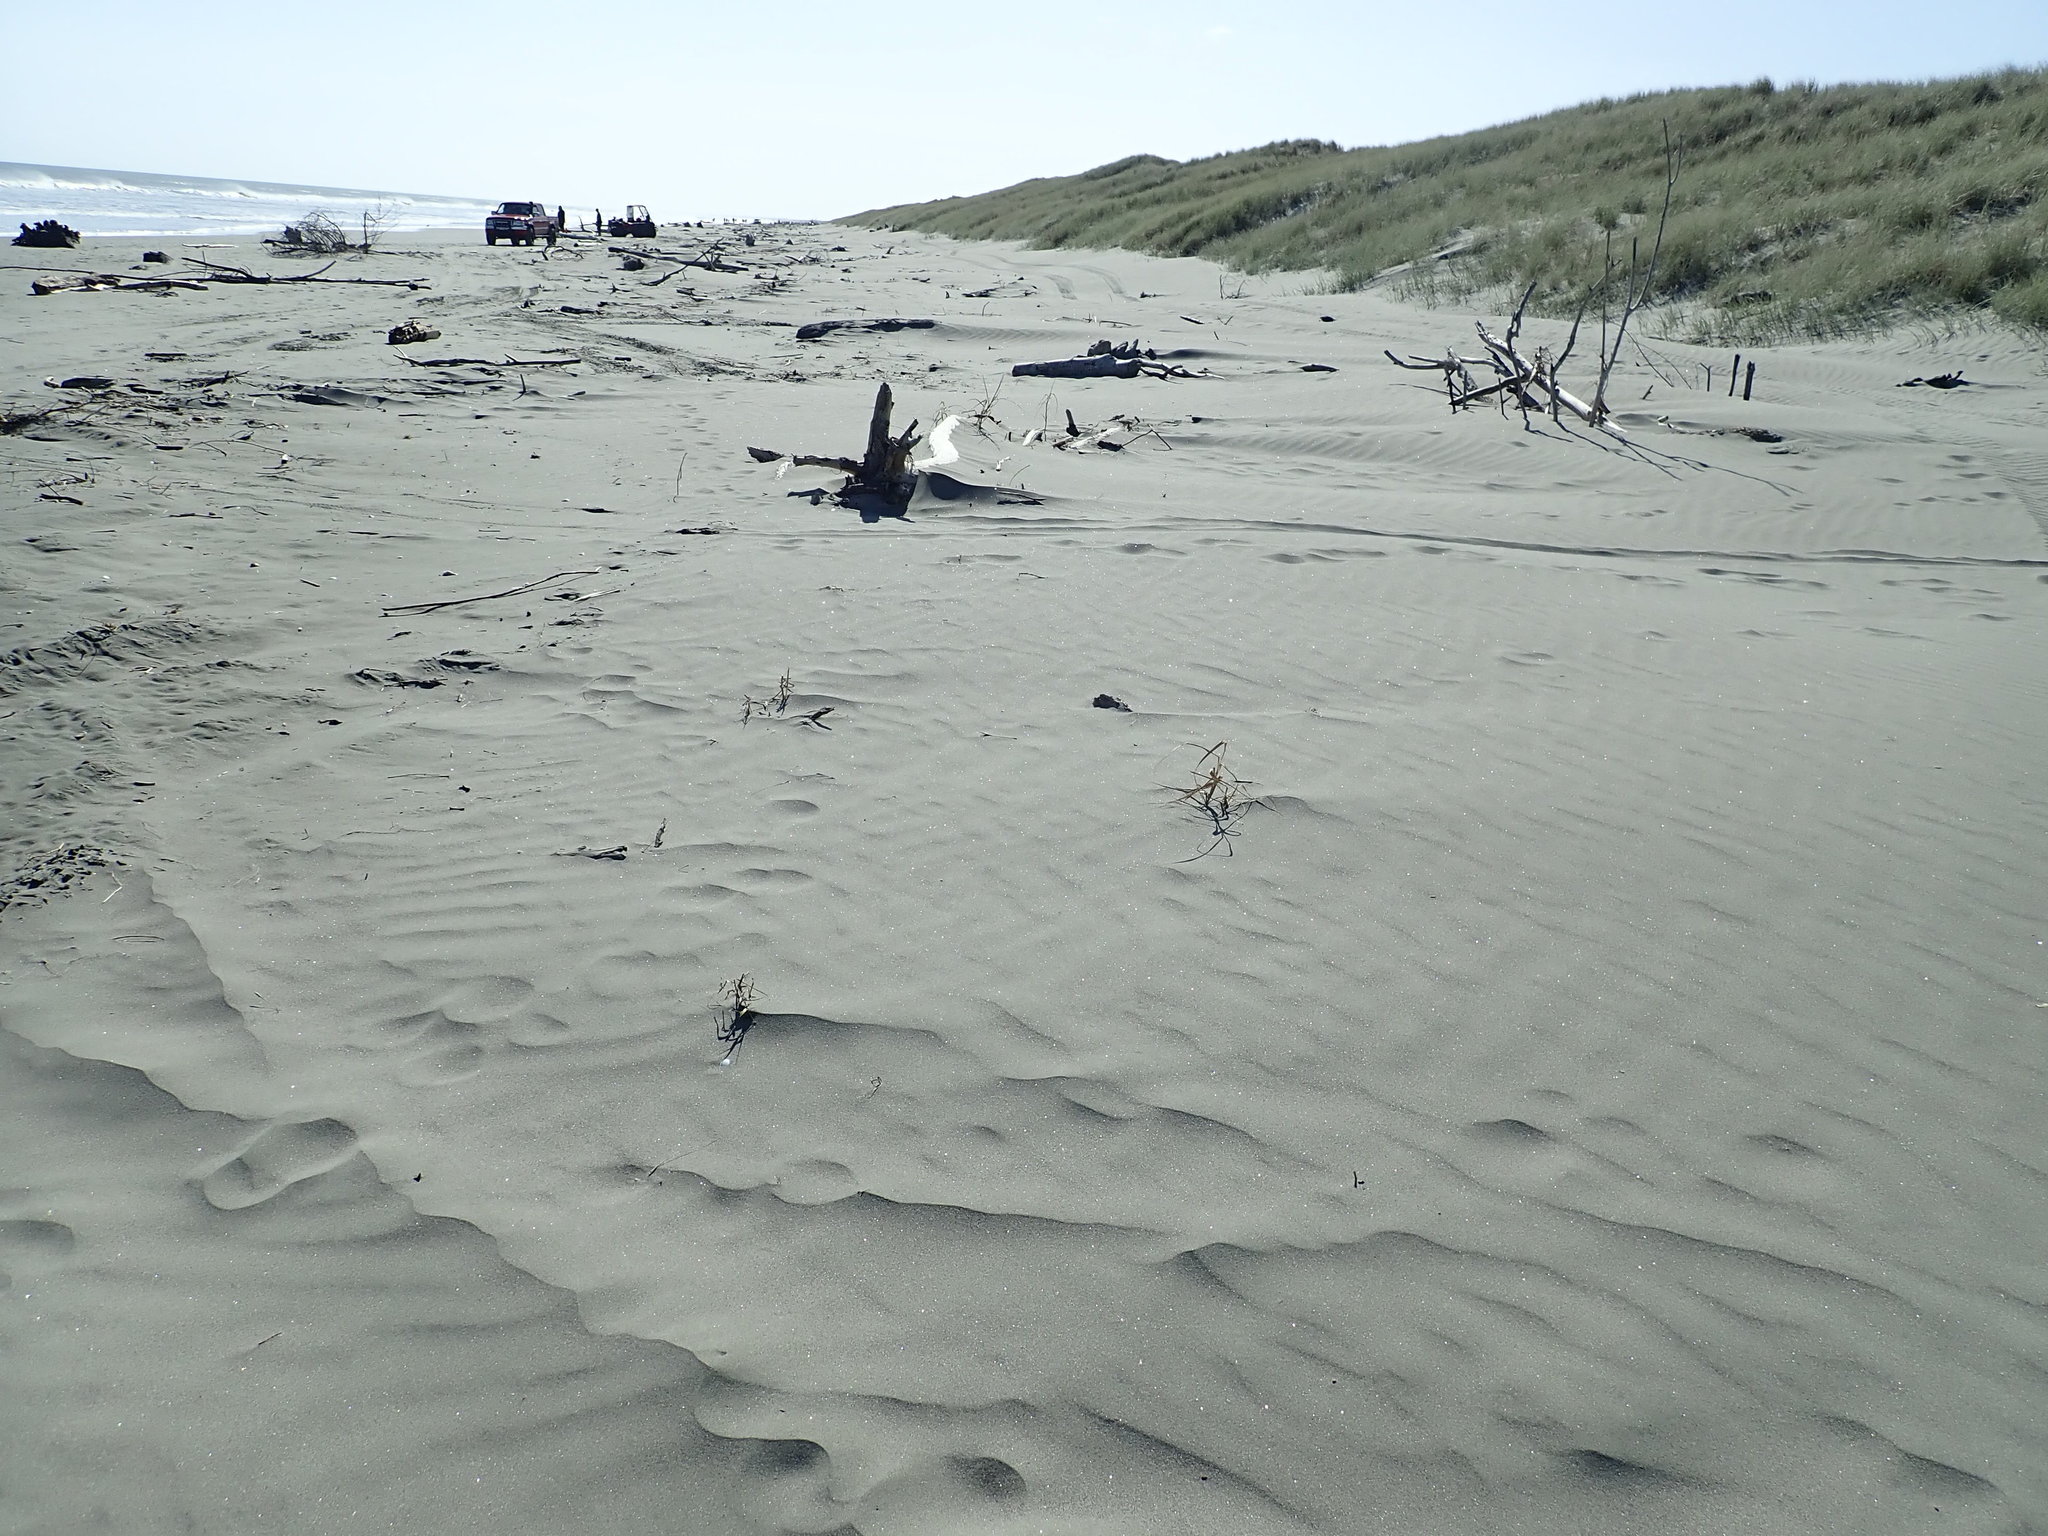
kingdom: Plantae
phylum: Tracheophyta
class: Liliopsida
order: Poales
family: Poaceae
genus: Phragmites
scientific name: Phragmites karka
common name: Tropical reed
